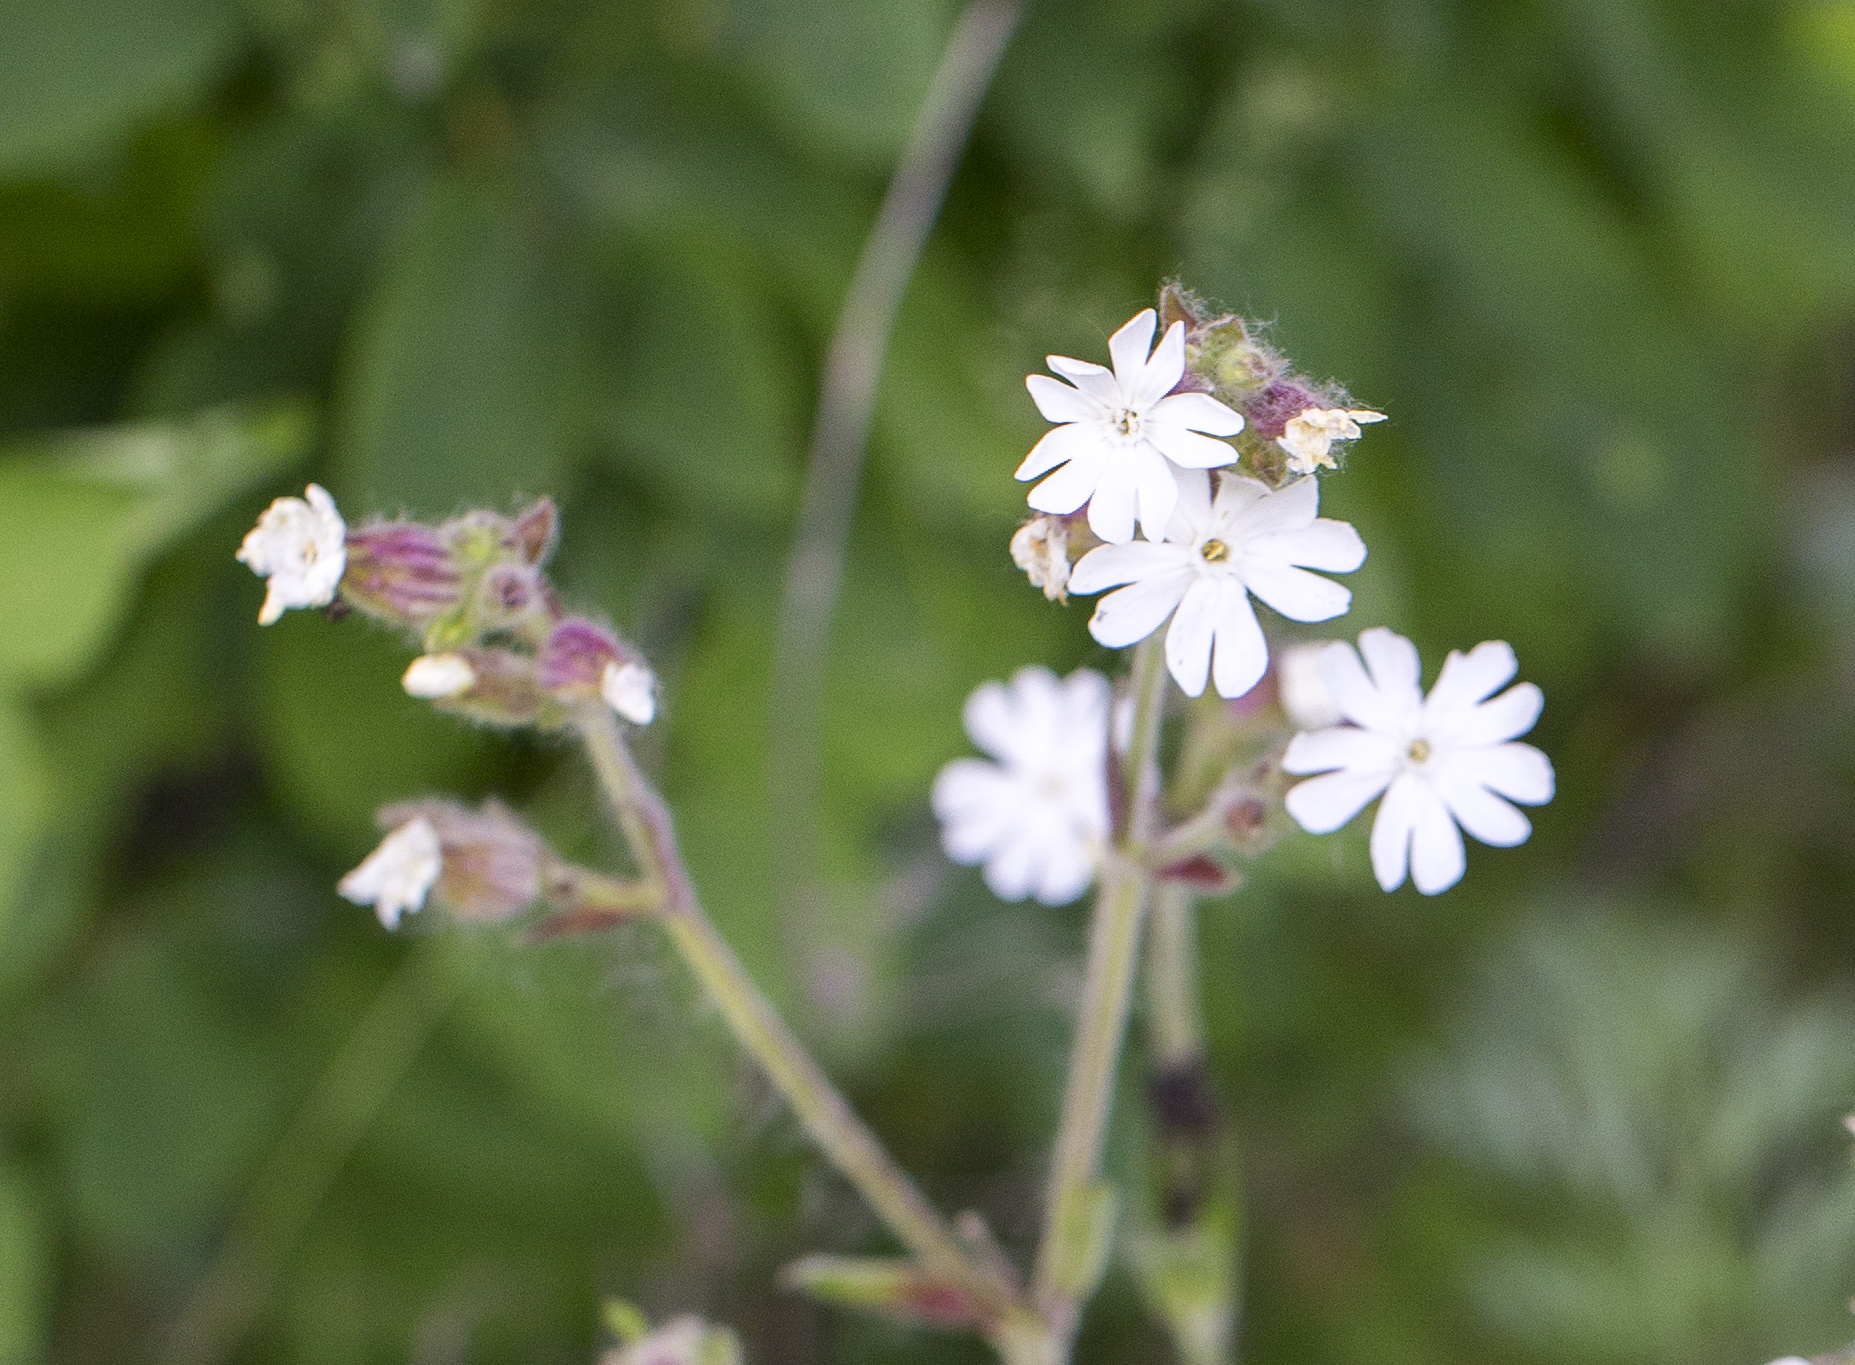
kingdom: Plantae
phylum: Tracheophyta
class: Magnoliopsida
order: Caryophyllales
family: Caryophyllaceae
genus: Silene
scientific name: Silene latifolia
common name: White campion
